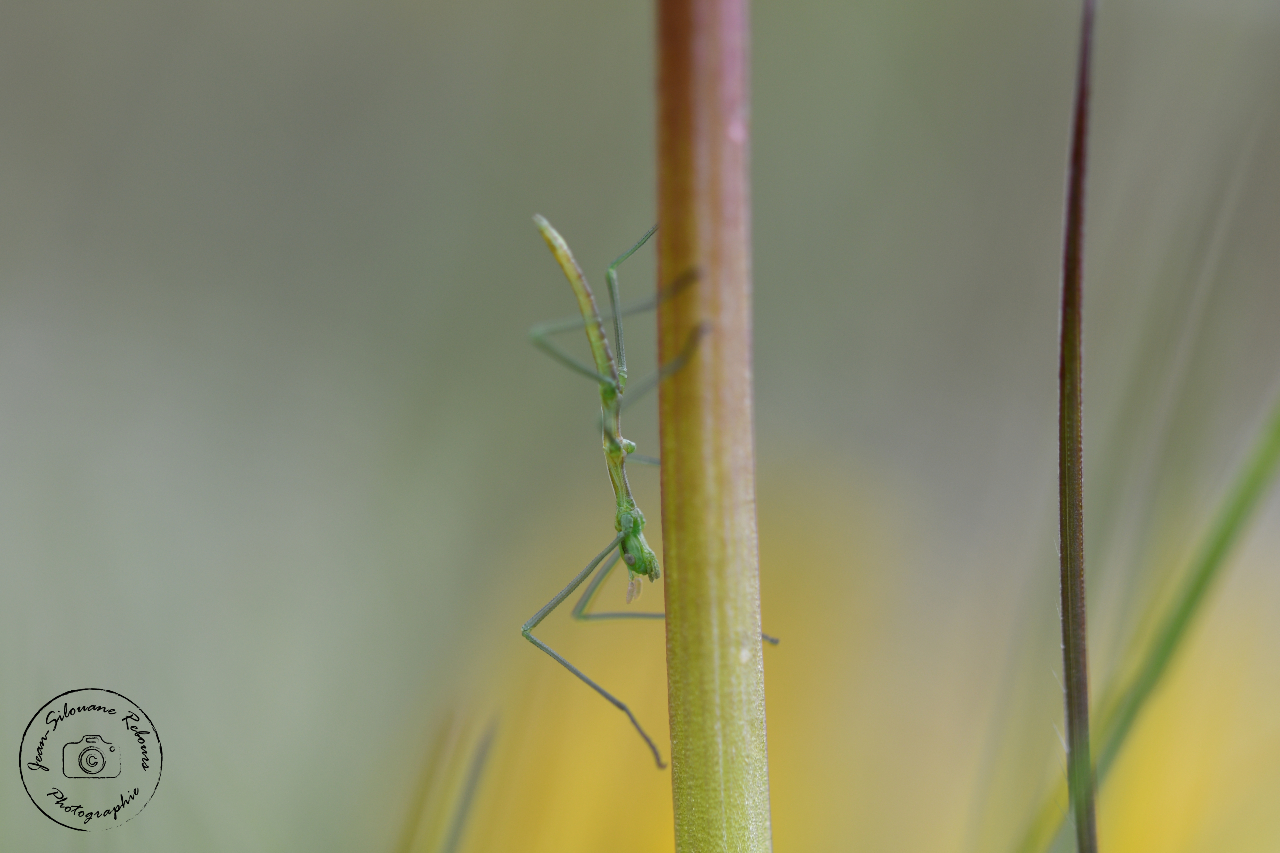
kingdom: Animalia
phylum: Arthropoda
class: Insecta
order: Phasmida
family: Bacillidae
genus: Pijnackeria
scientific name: Pijnackeria masettii
